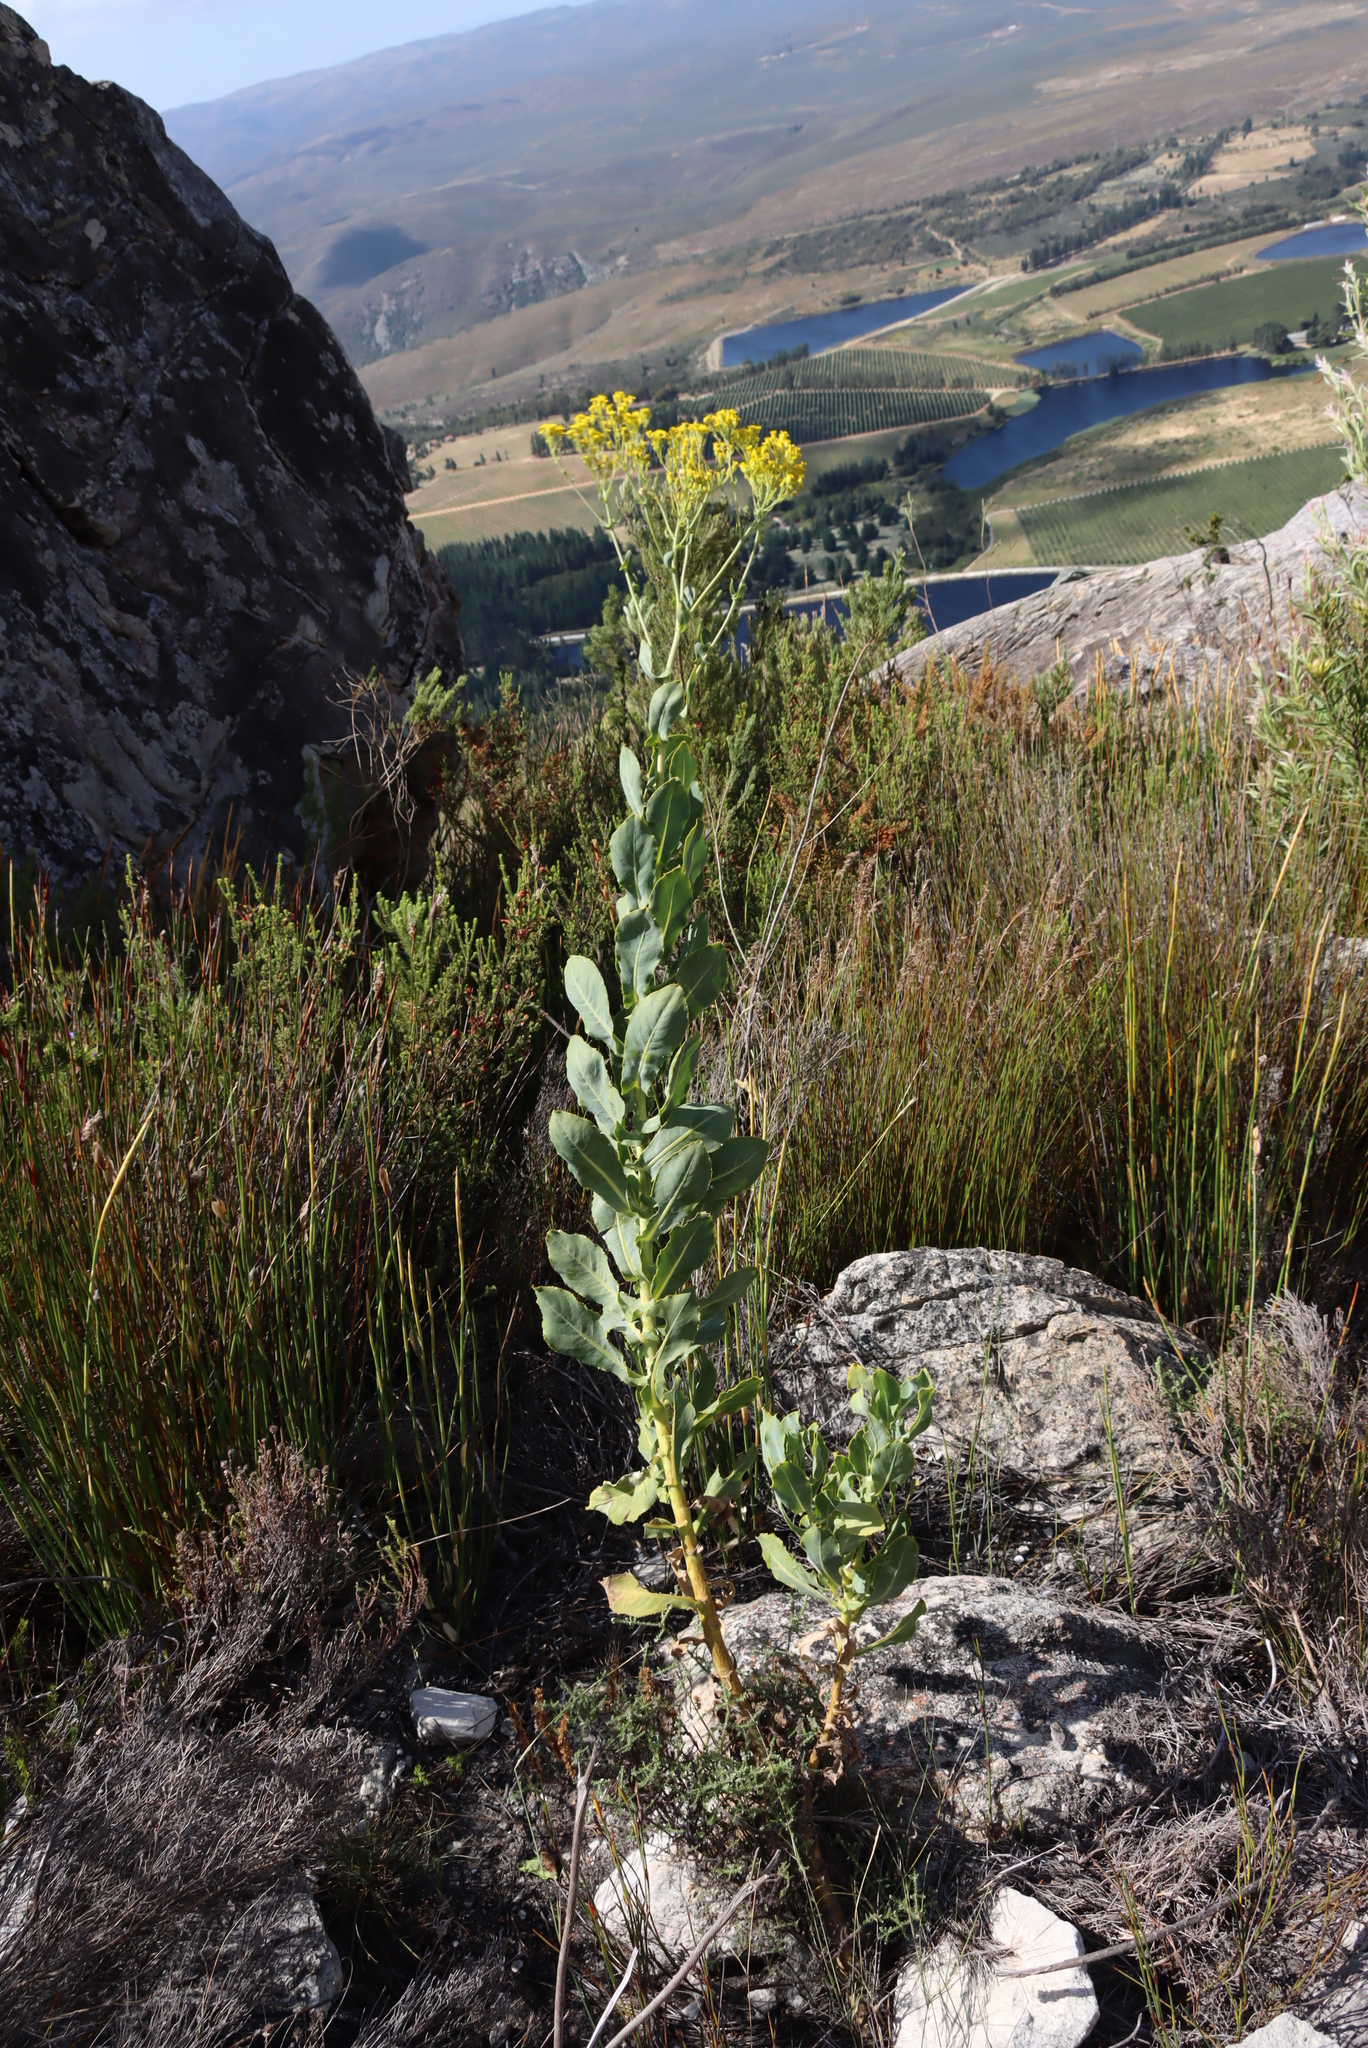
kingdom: Plantae
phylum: Tracheophyta
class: Magnoliopsida
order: Asterales
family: Asteraceae
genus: Othonna
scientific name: Othonna parviflora
